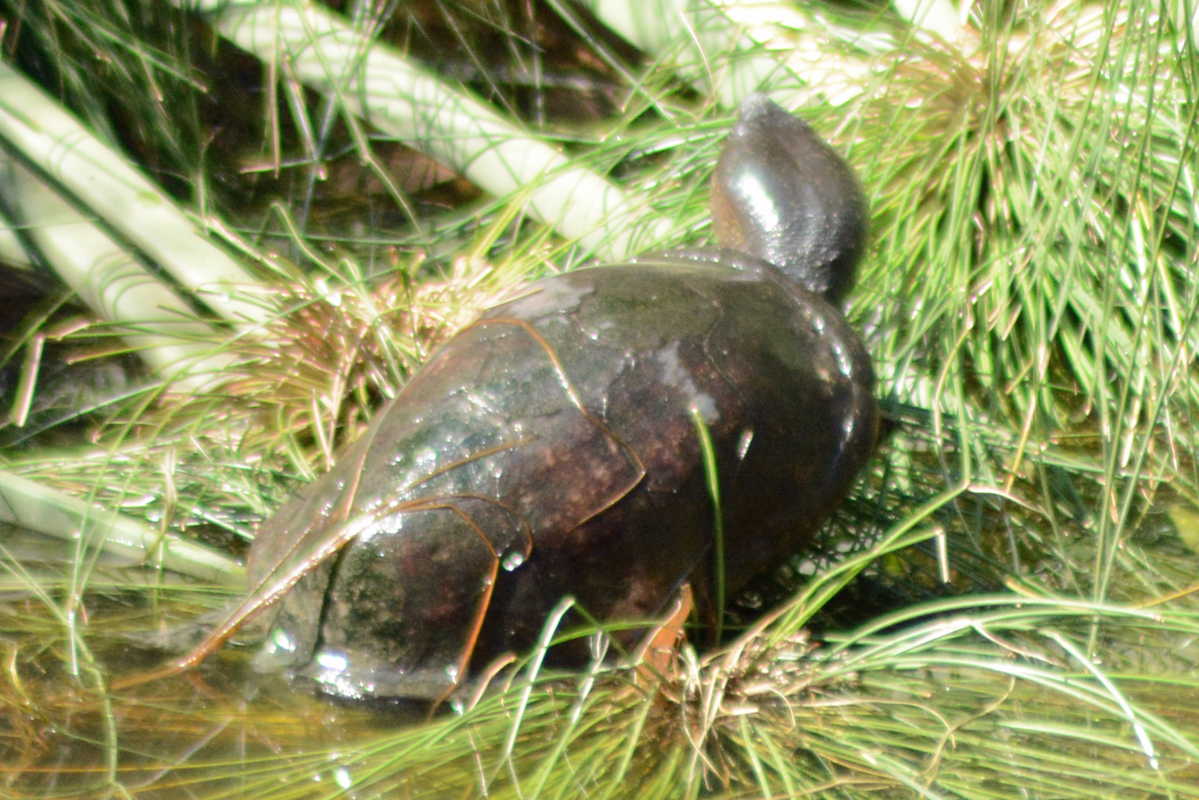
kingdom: Animalia
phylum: Chordata
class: Testudines
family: Kinosternidae
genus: Kinosternon
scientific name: Kinosternon integrum
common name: Mexican mud turtle
